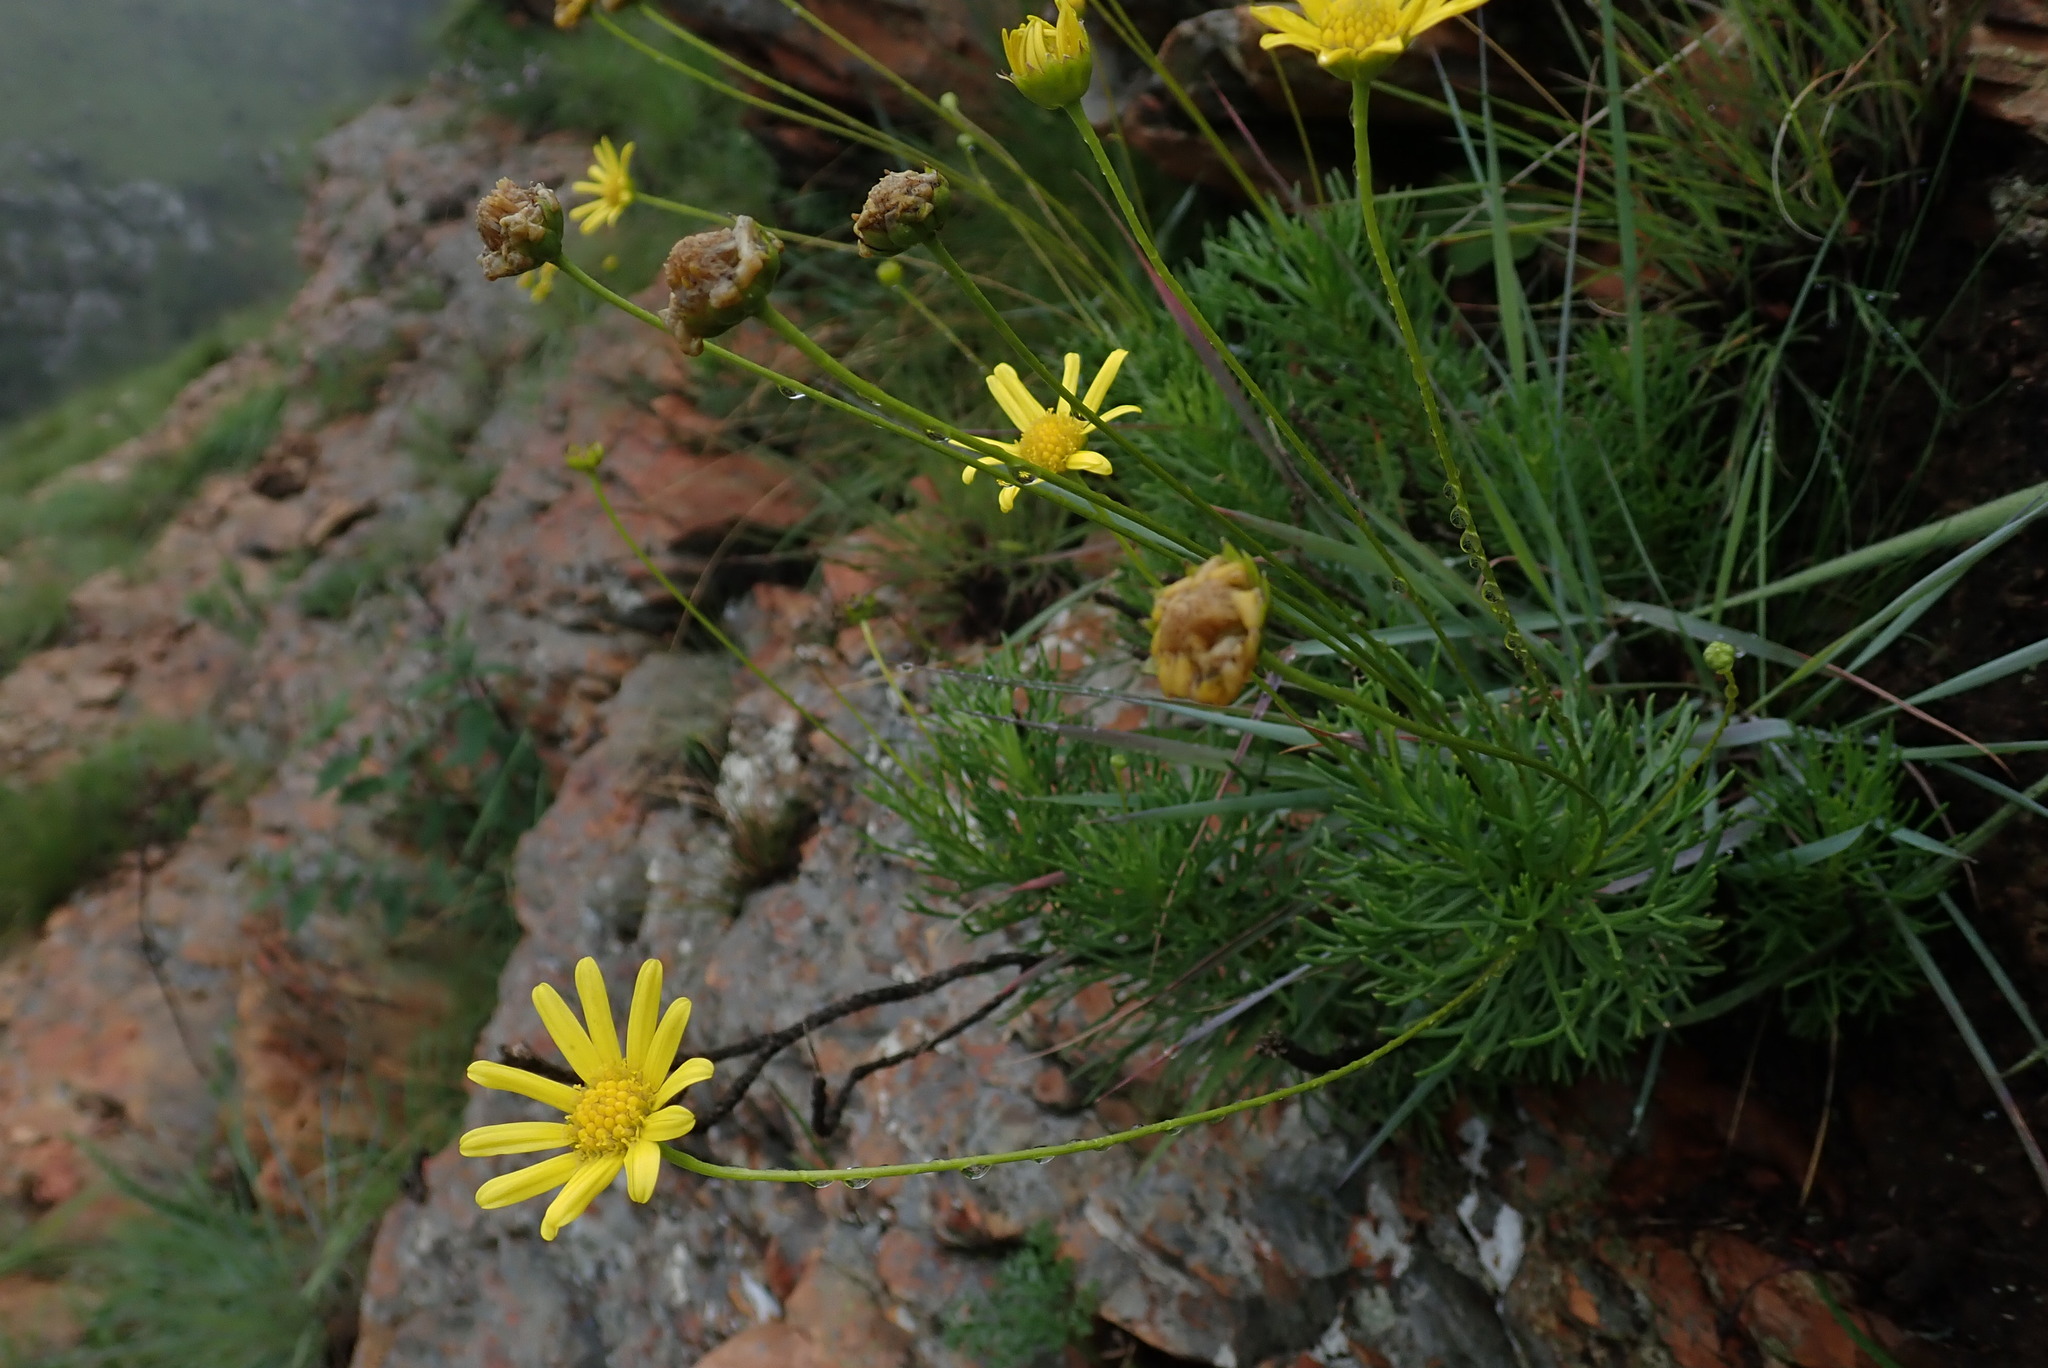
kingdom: Plantae
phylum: Tracheophyta
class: Magnoliopsida
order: Asterales
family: Asteraceae
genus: Ursinia
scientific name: Ursinia nana
